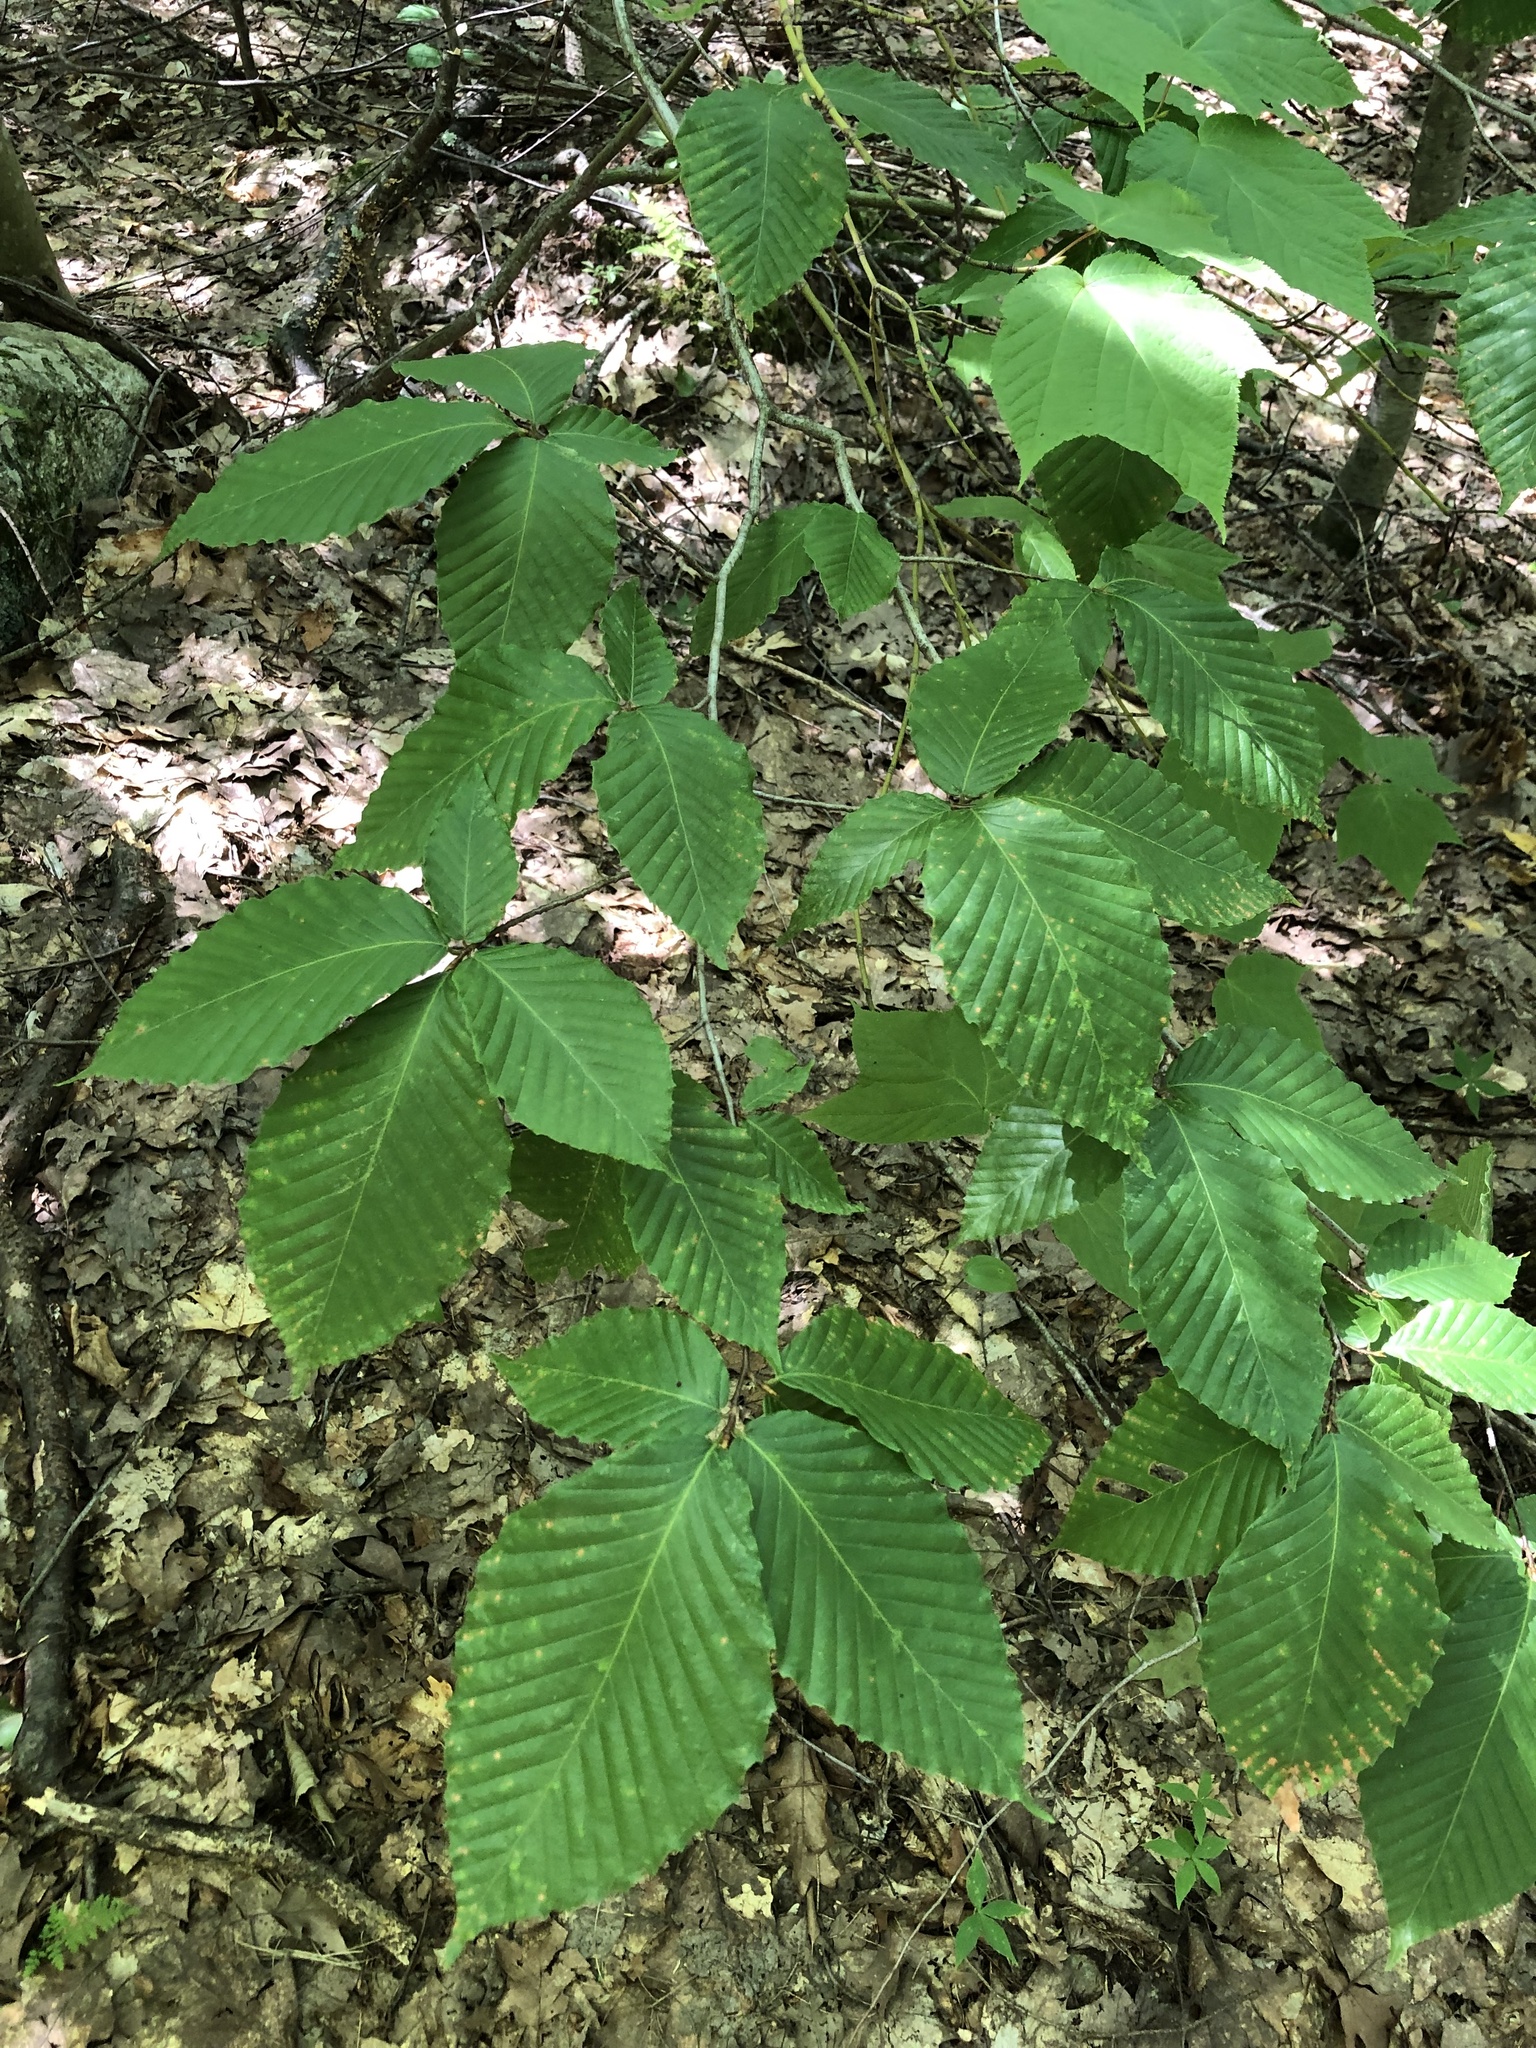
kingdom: Plantae
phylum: Tracheophyta
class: Magnoliopsida
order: Fagales
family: Fagaceae
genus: Fagus
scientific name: Fagus grandifolia
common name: American beech
